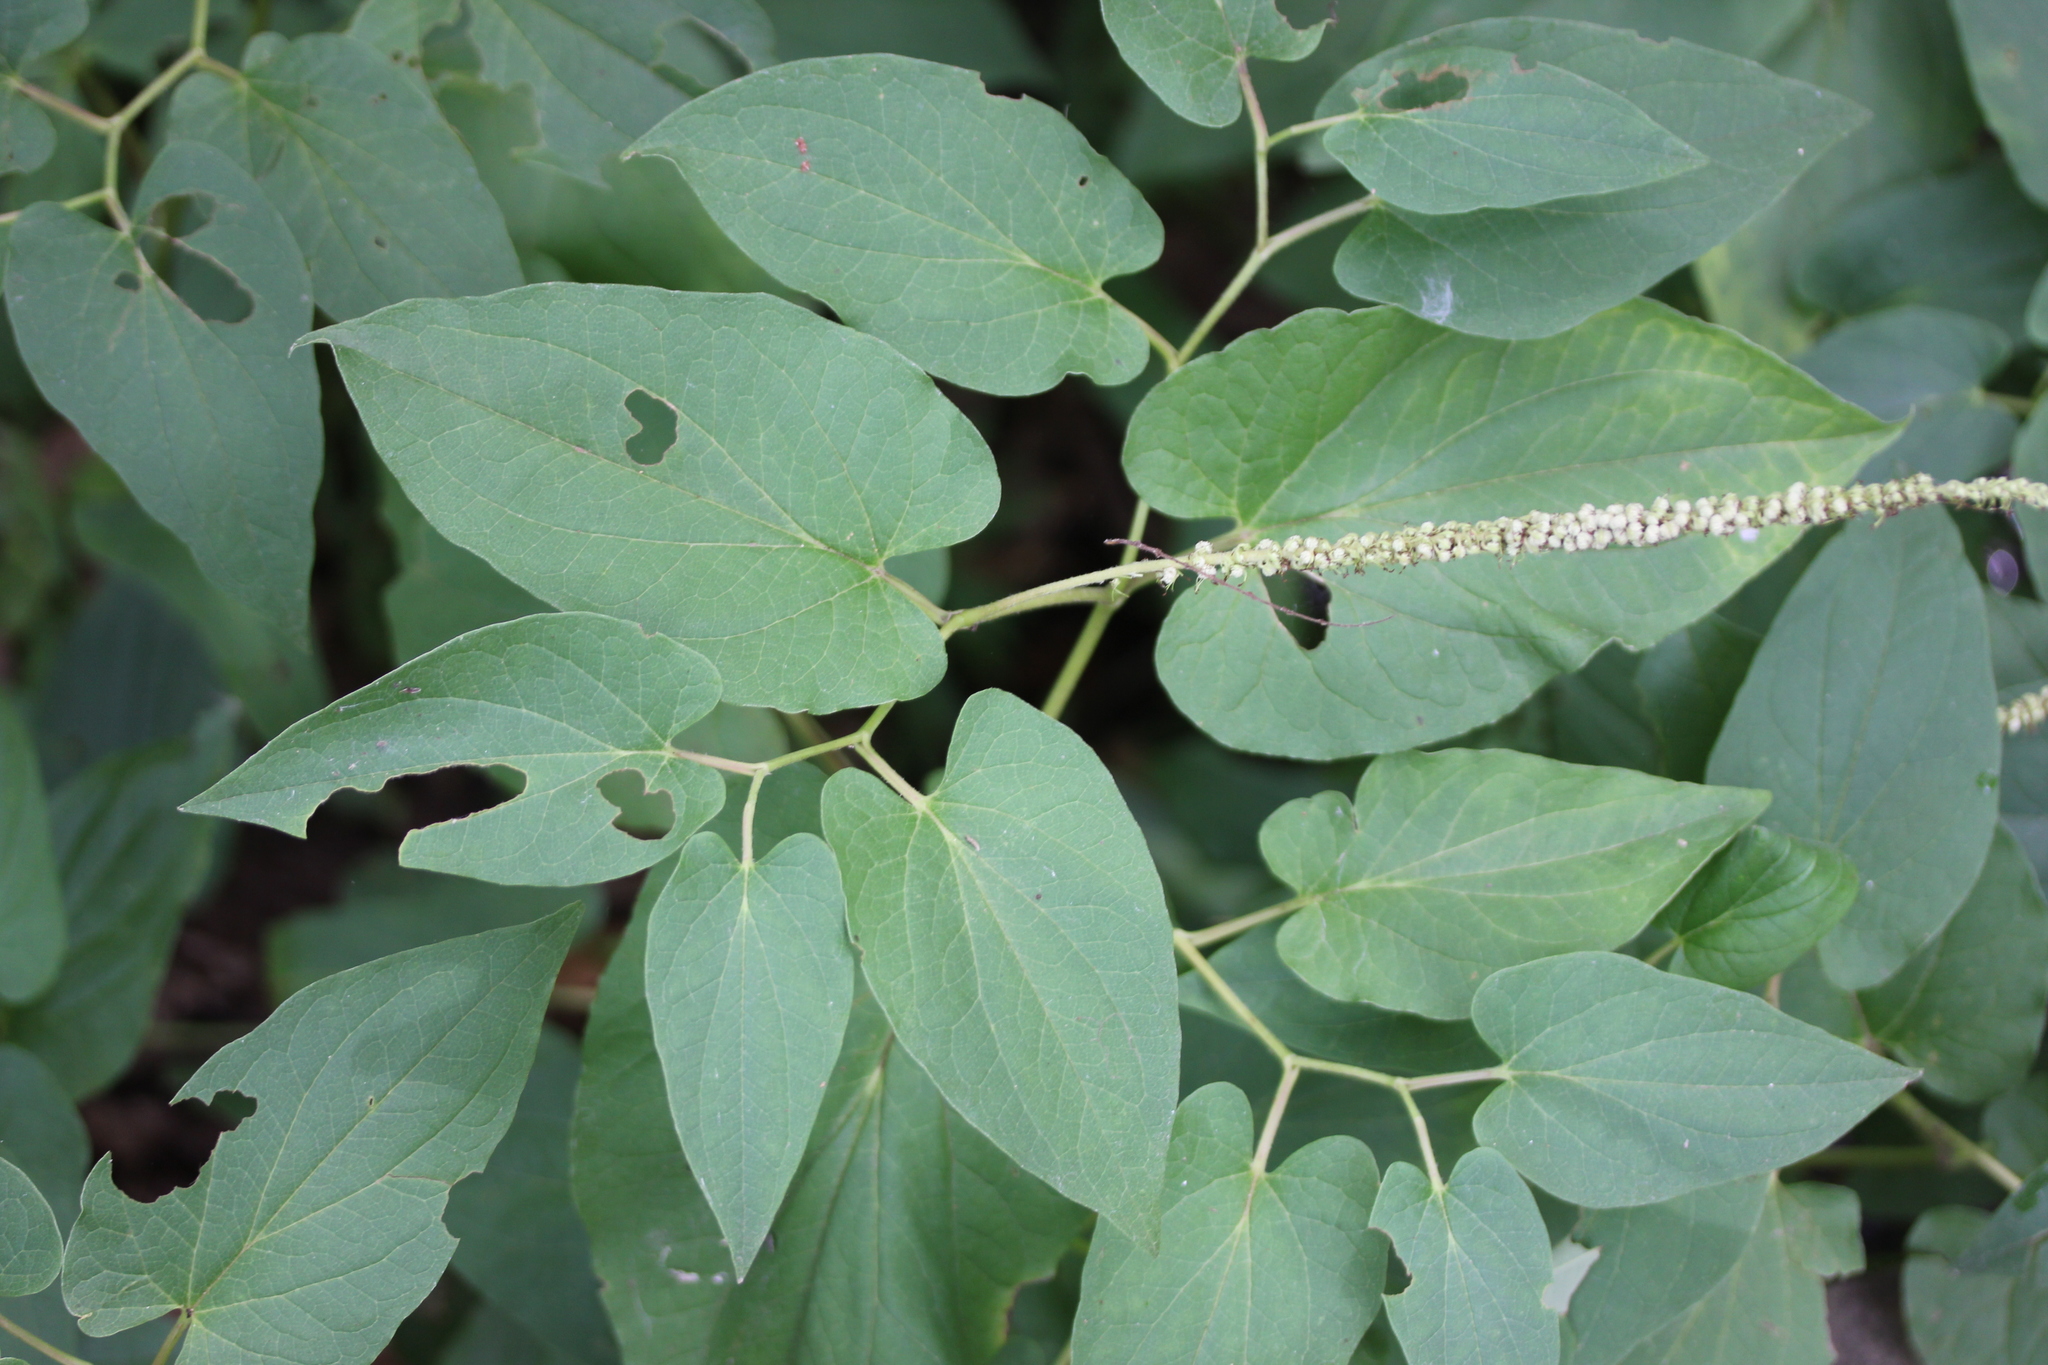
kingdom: Plantae
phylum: Tracheophyta
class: Magnoliopsida
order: Piperales
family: Saururaceae
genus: Saururus
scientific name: Saururus cernuus
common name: Lizard's-tail
